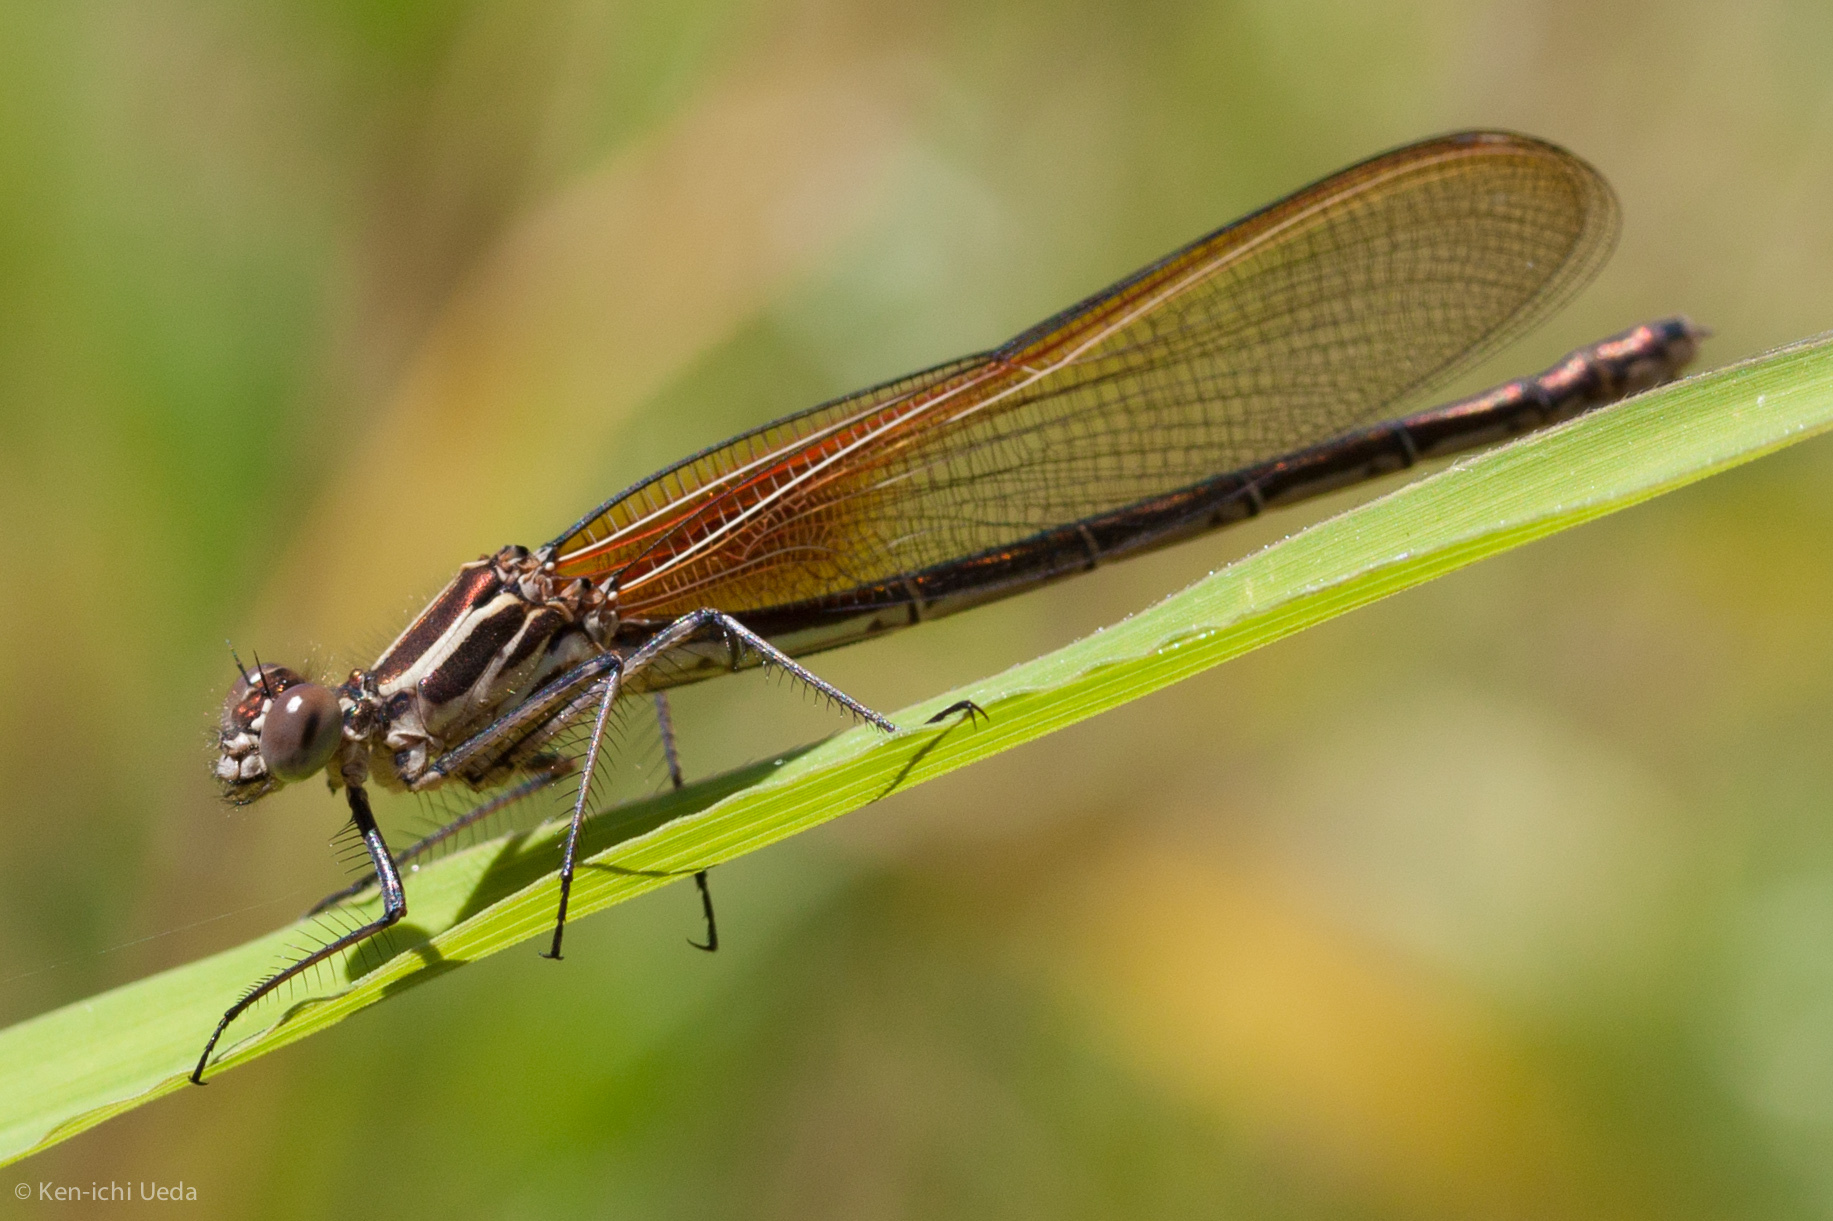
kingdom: Animalia
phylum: Arthropoda
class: Insecta
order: Odonata
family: Calopterygidae
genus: Hetaerina
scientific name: Hetaerina americana
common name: American rubyspot
